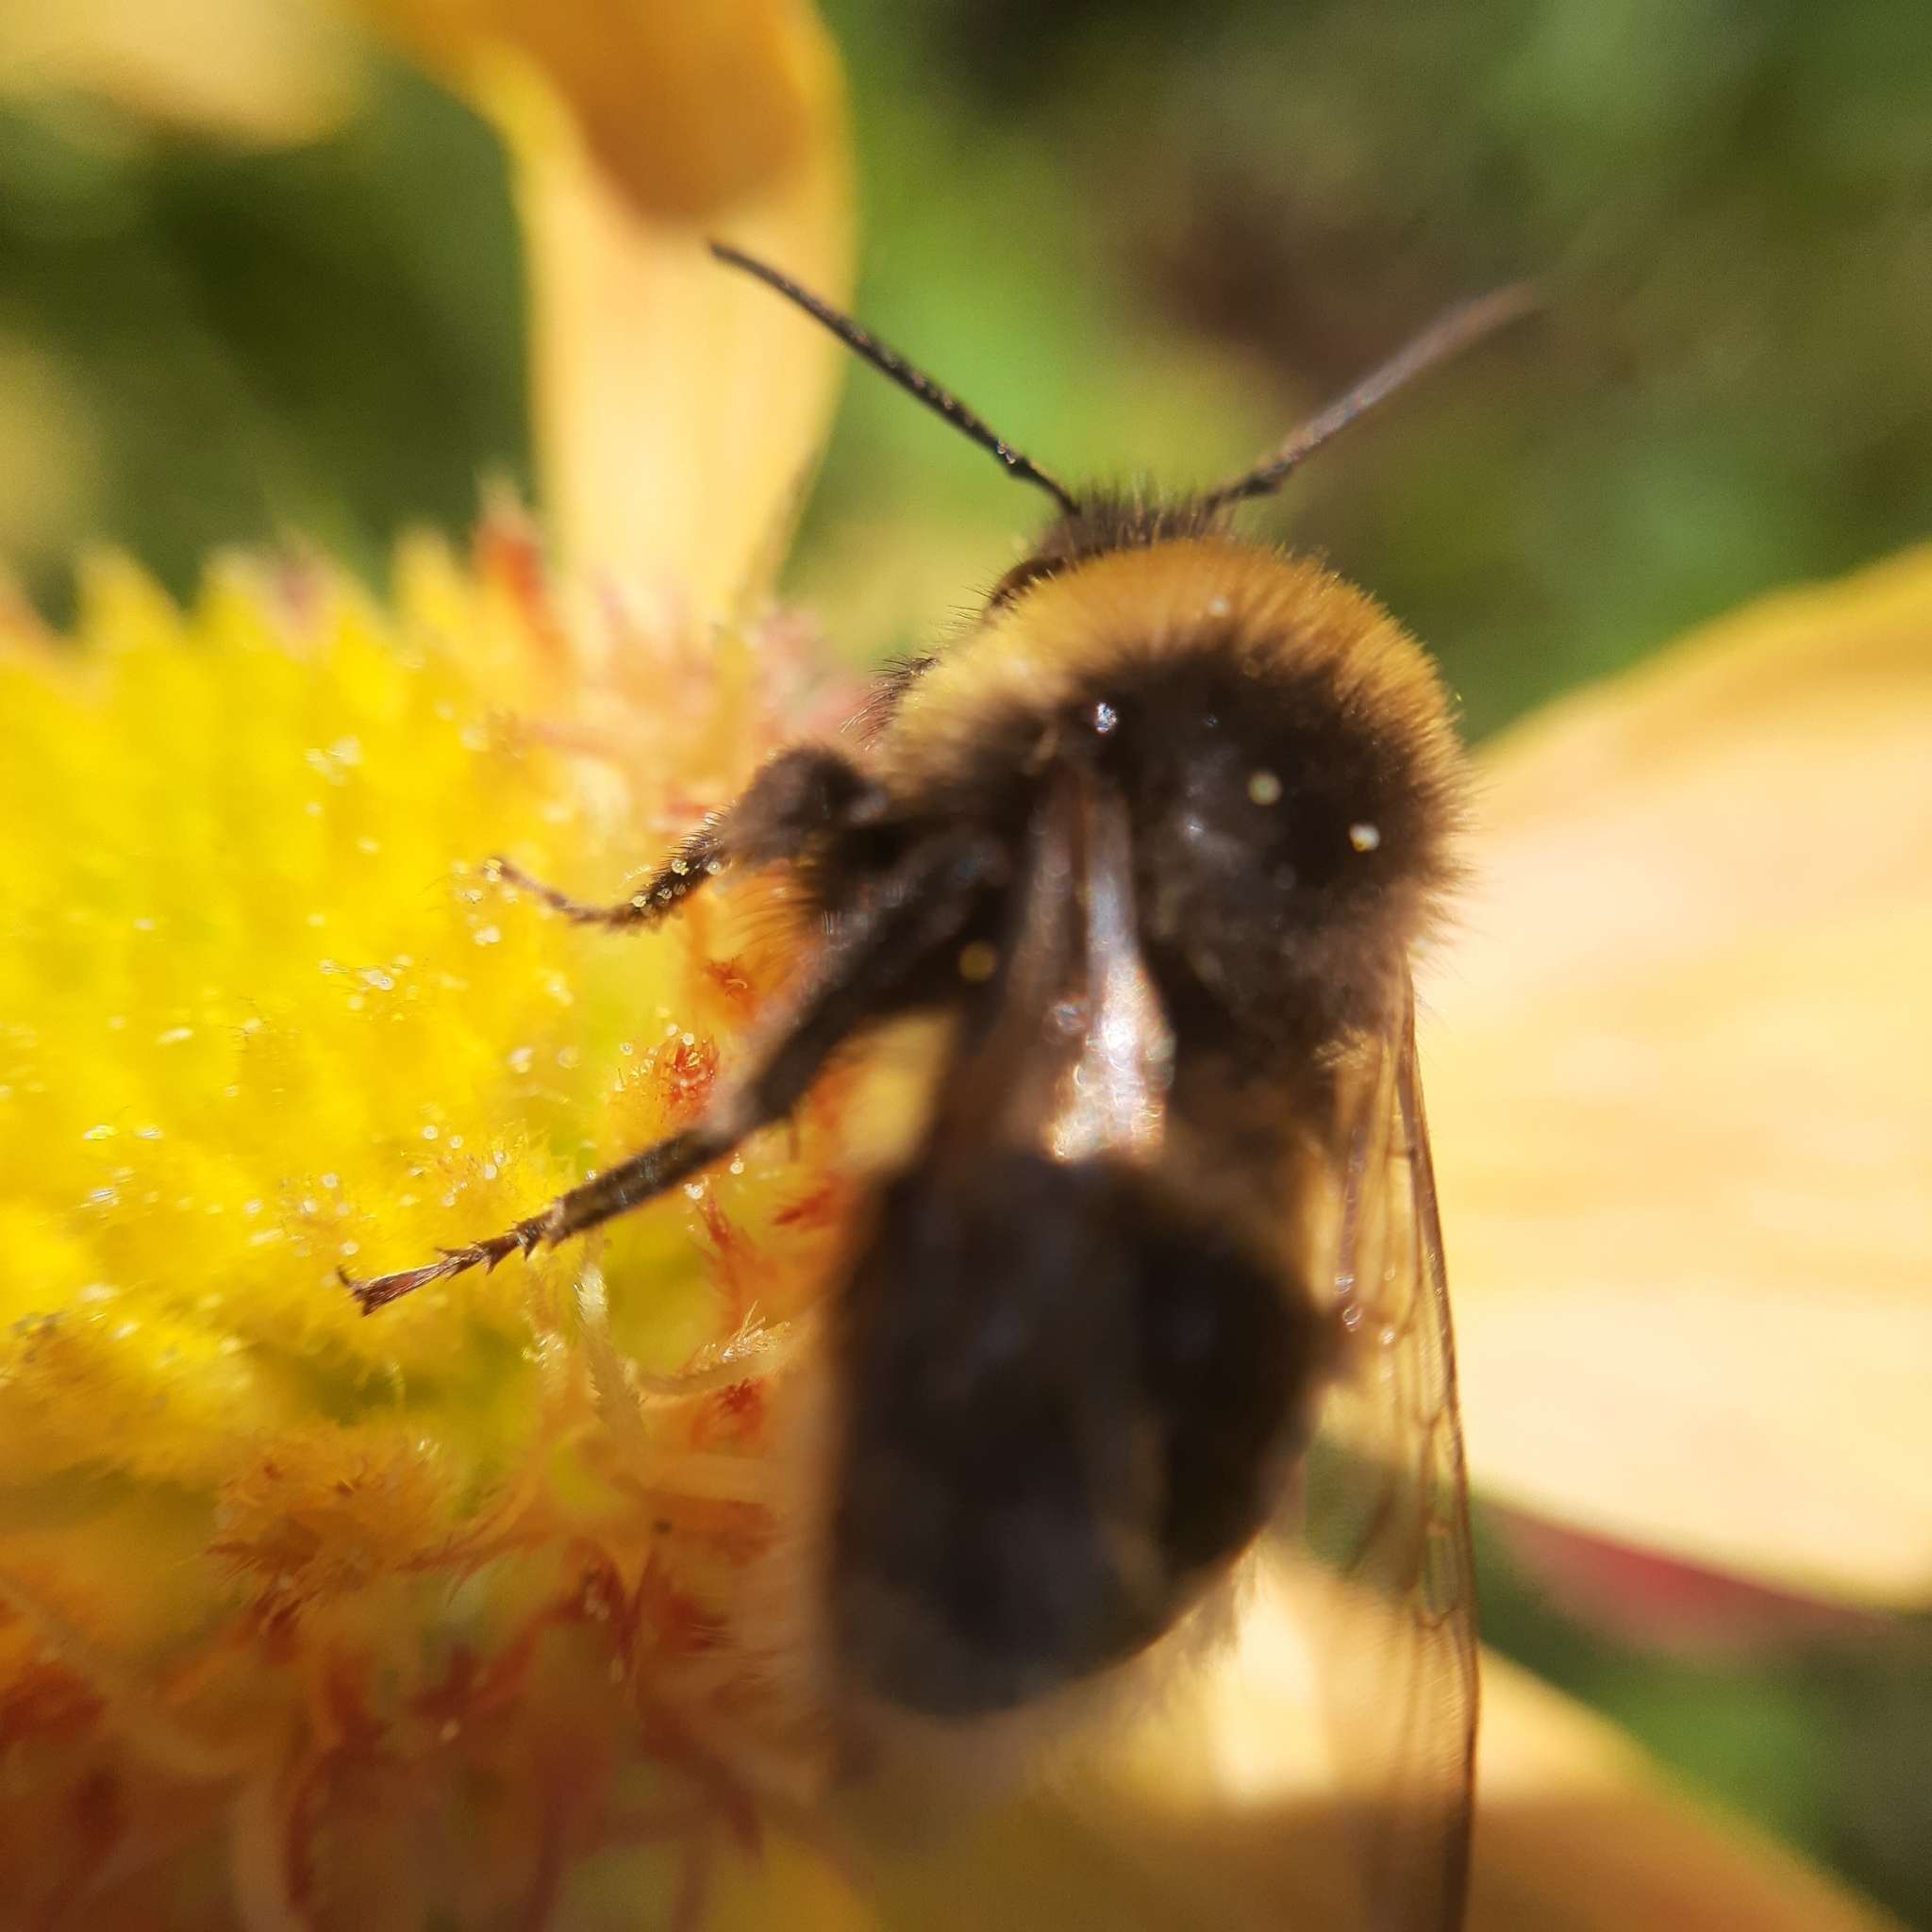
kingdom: Animalia
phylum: Arthropoda
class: Insecta
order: Hymenoptera
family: Apidae
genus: Bombus
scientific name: Bombus
